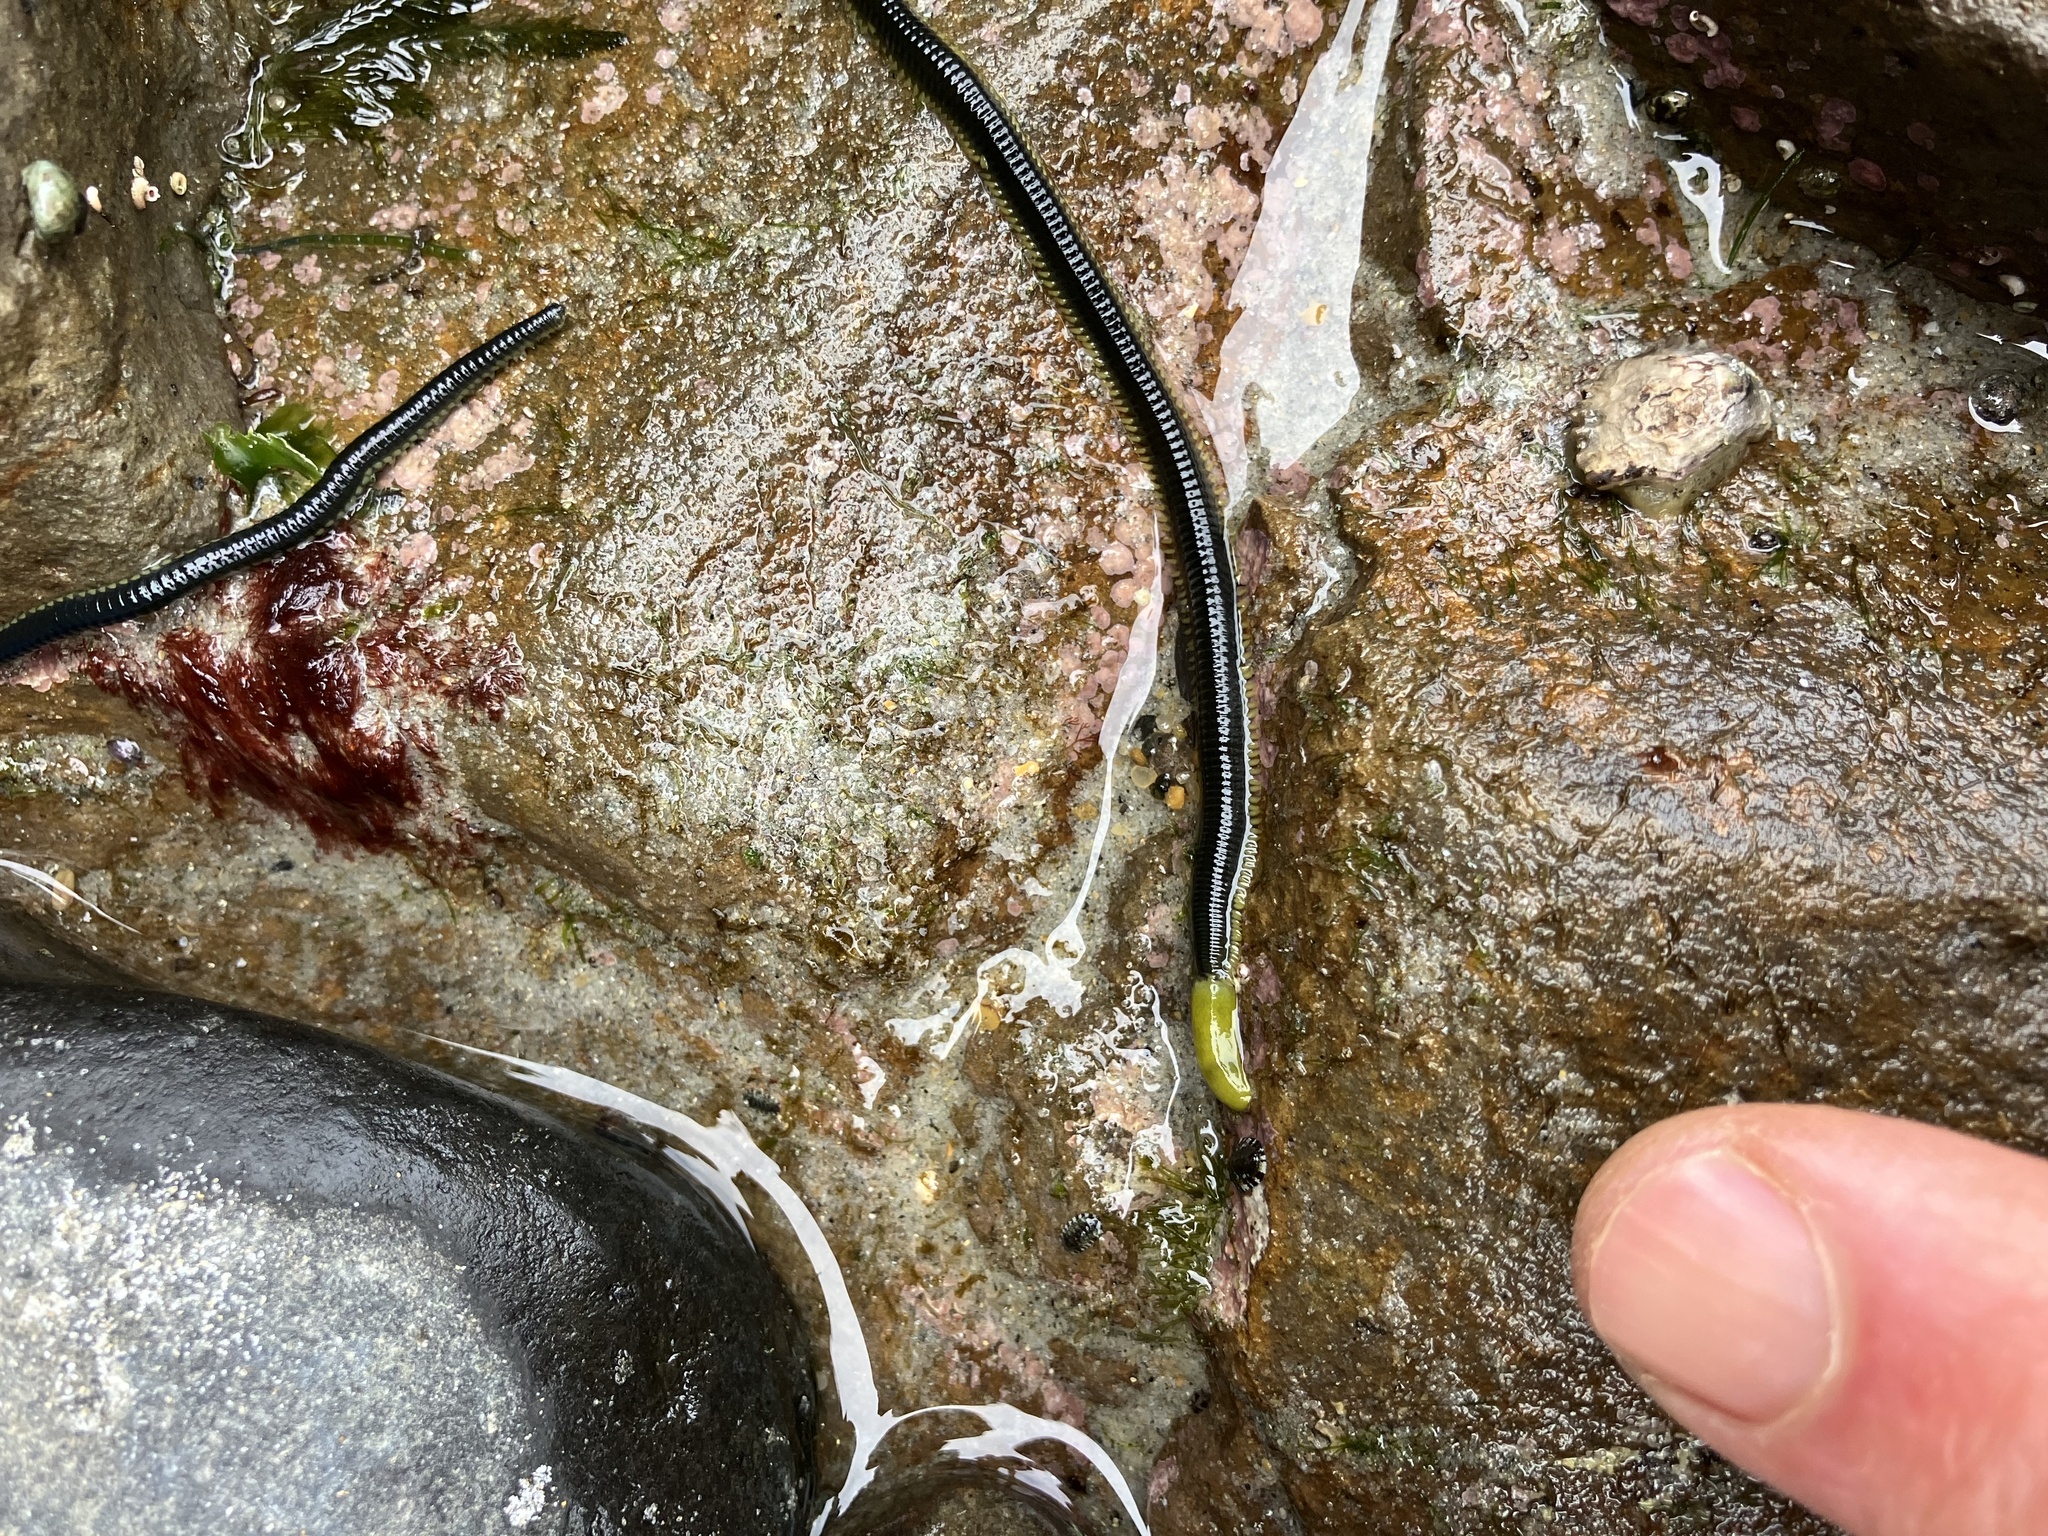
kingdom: Animalia
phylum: Annelida
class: Polychaeta
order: Phyllodocida
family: Phyllodocidae
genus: Eulalia
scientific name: Eulalia microphylla
